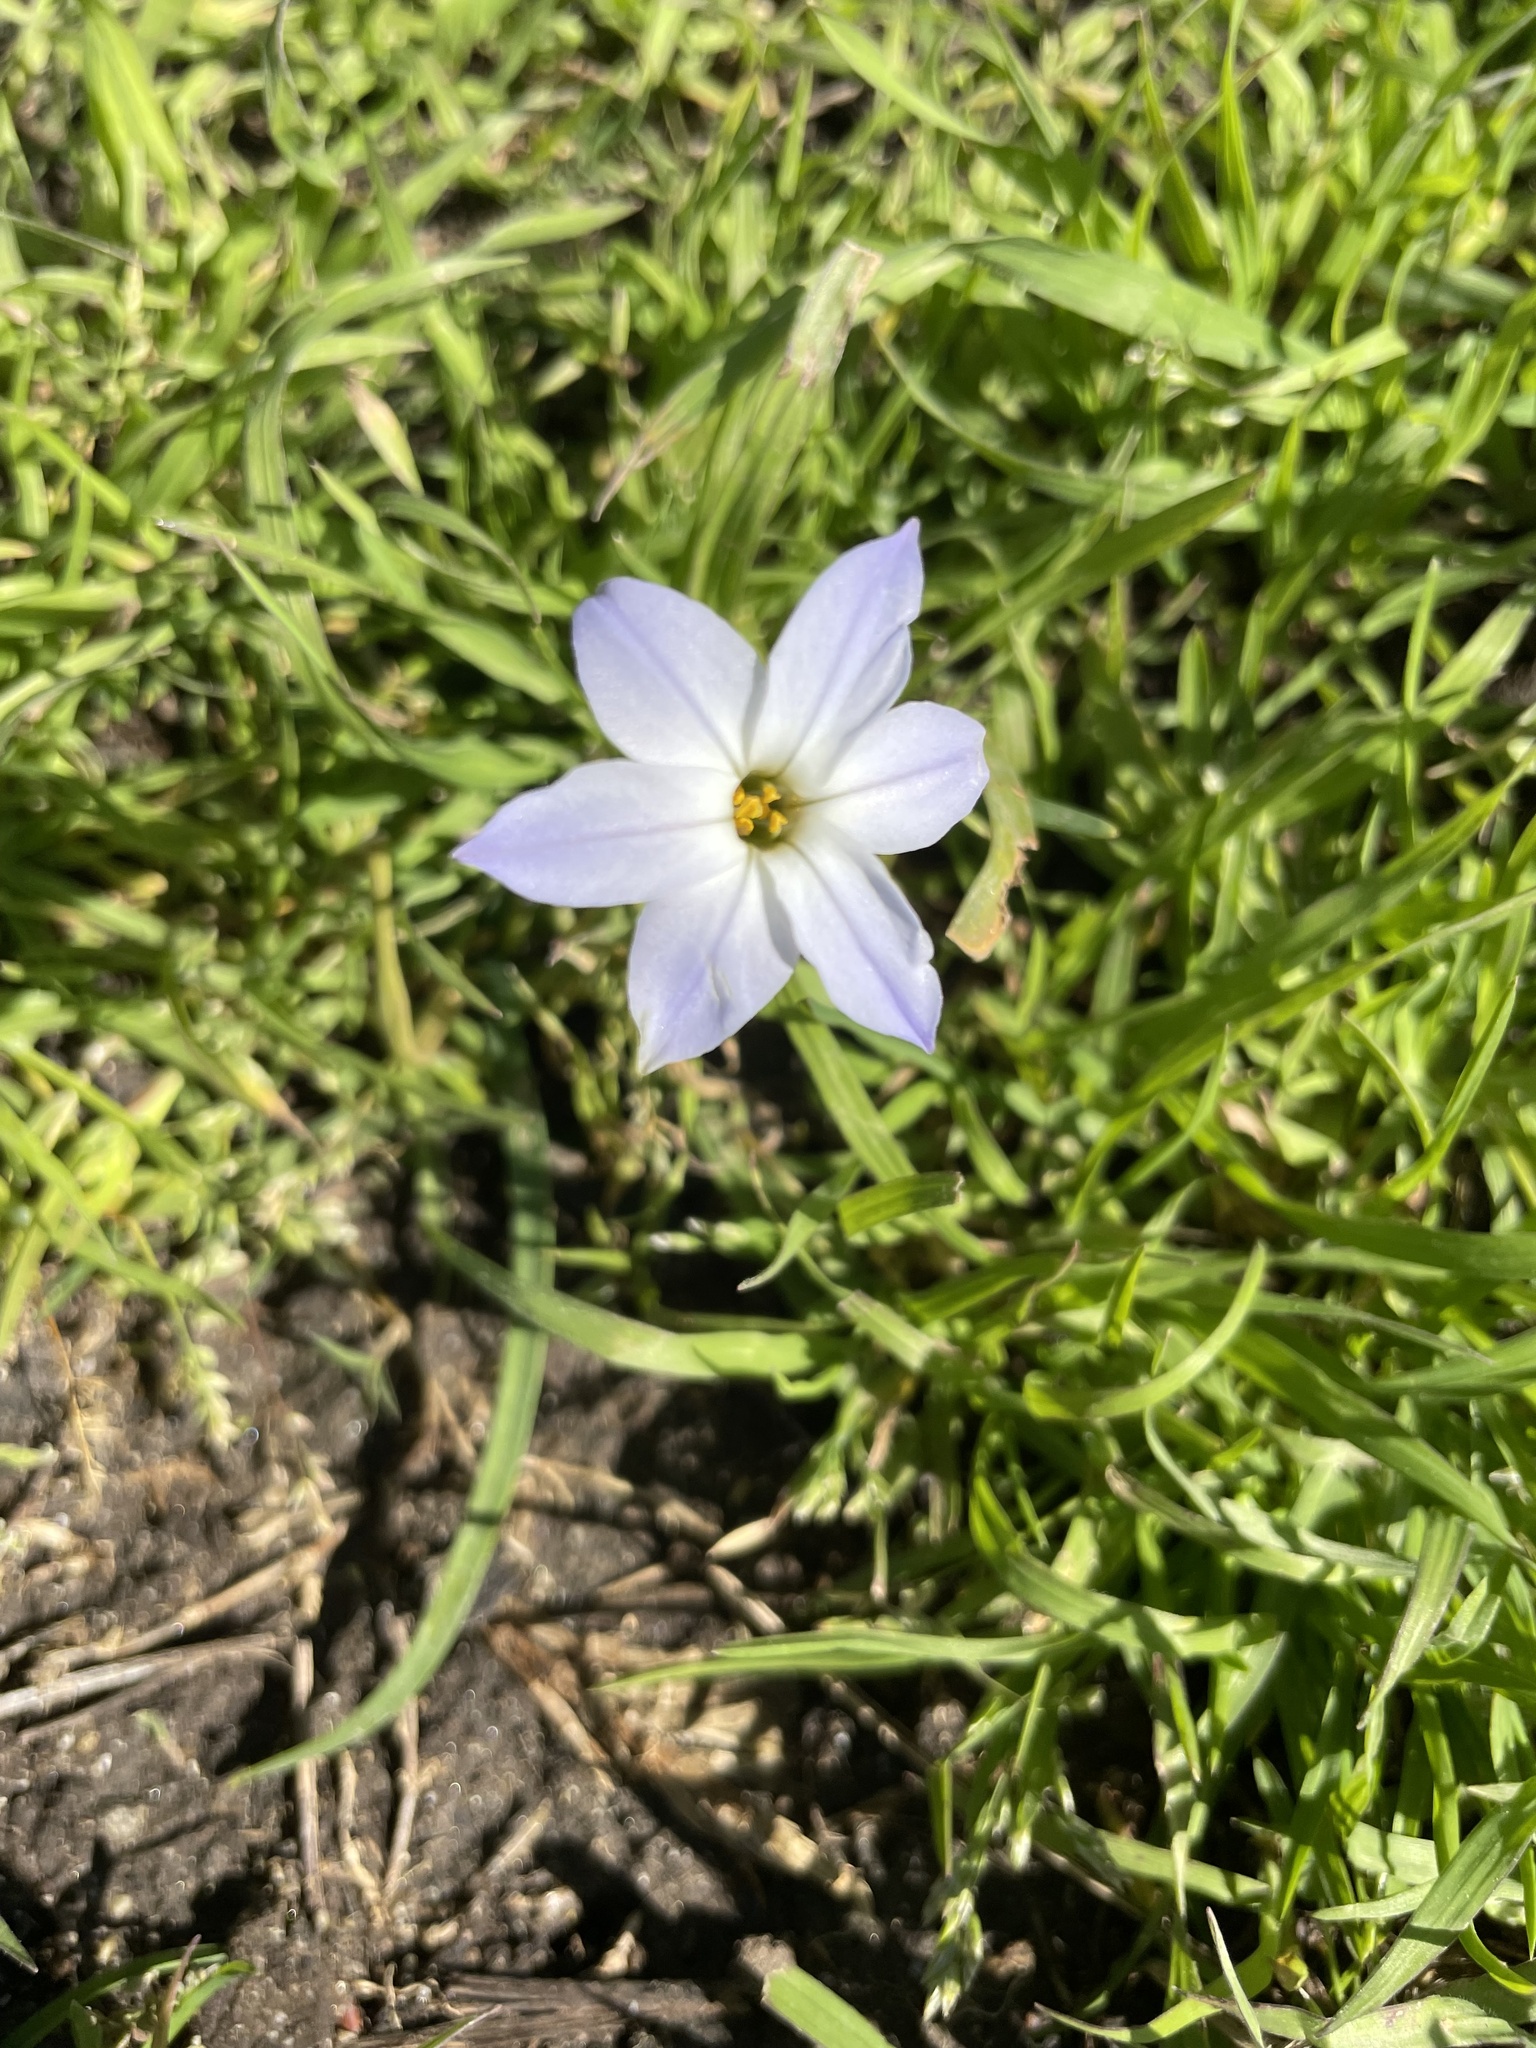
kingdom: Plantae
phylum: Tracheophyta
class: Liliopsida
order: Asparagales
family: Amaryllidaceae
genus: Ipheion
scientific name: Ipheion uniflorum
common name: Spring starflower
